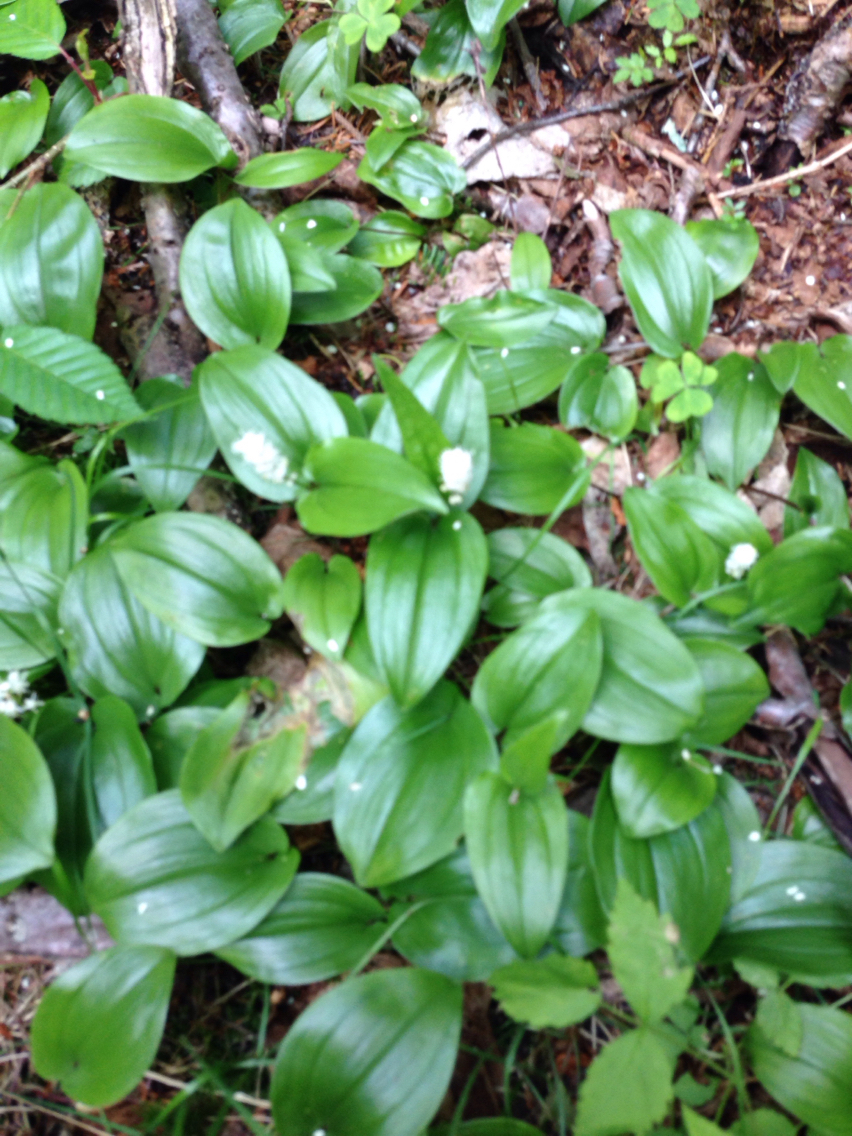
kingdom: Plantae
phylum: Tracheophyta
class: Liliopsida
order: Asparagales
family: Asparagaceae
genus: Maianthemum
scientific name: Maianthemum canadense
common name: False lily-of-the-valley
